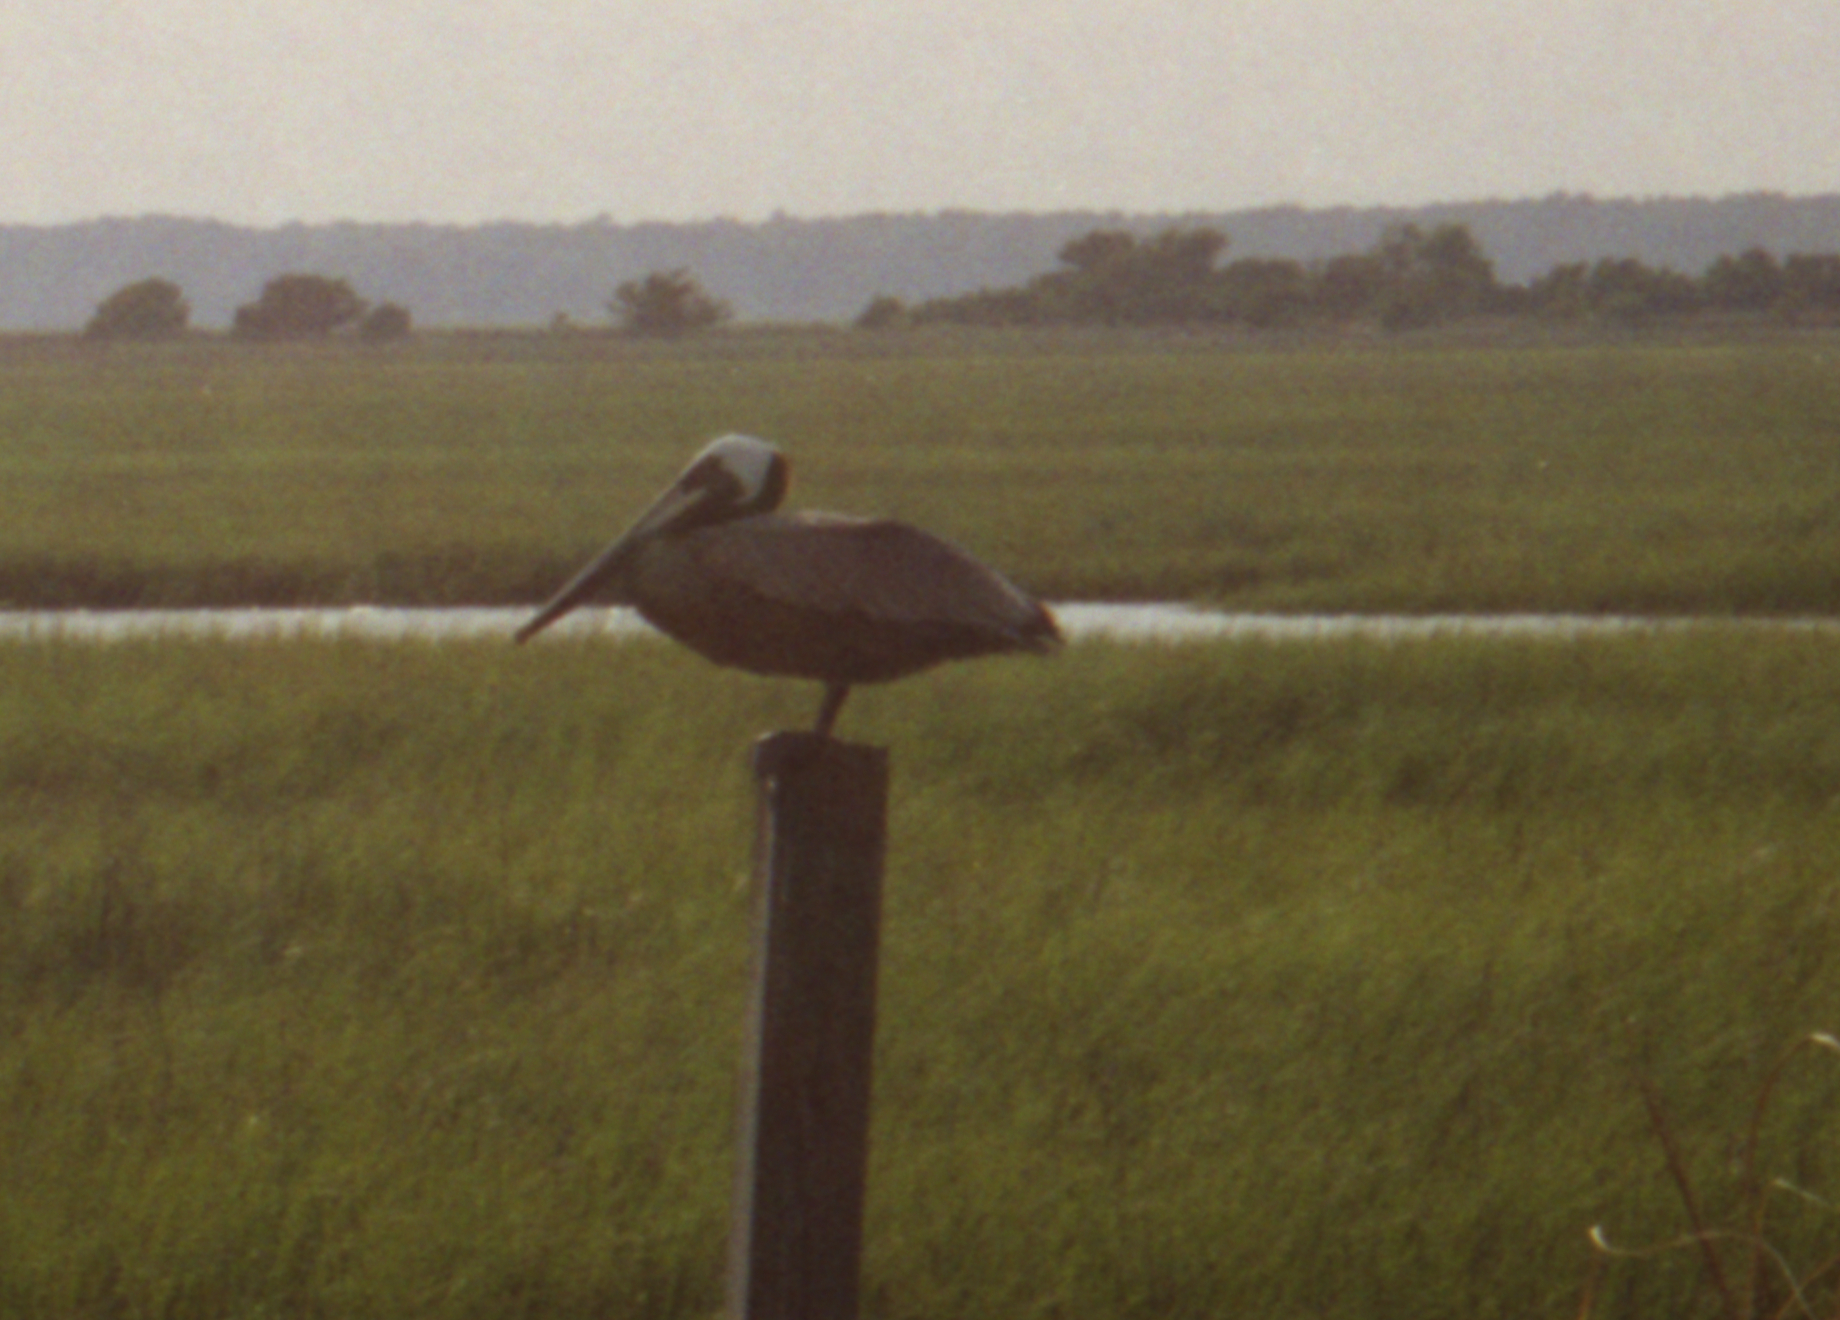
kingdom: Animalia
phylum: Chordata
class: Aves
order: Pelecaniformes
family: Pelecanidae
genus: Pelecanus
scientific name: Pelecanus occidentalis
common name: Brown pelican
